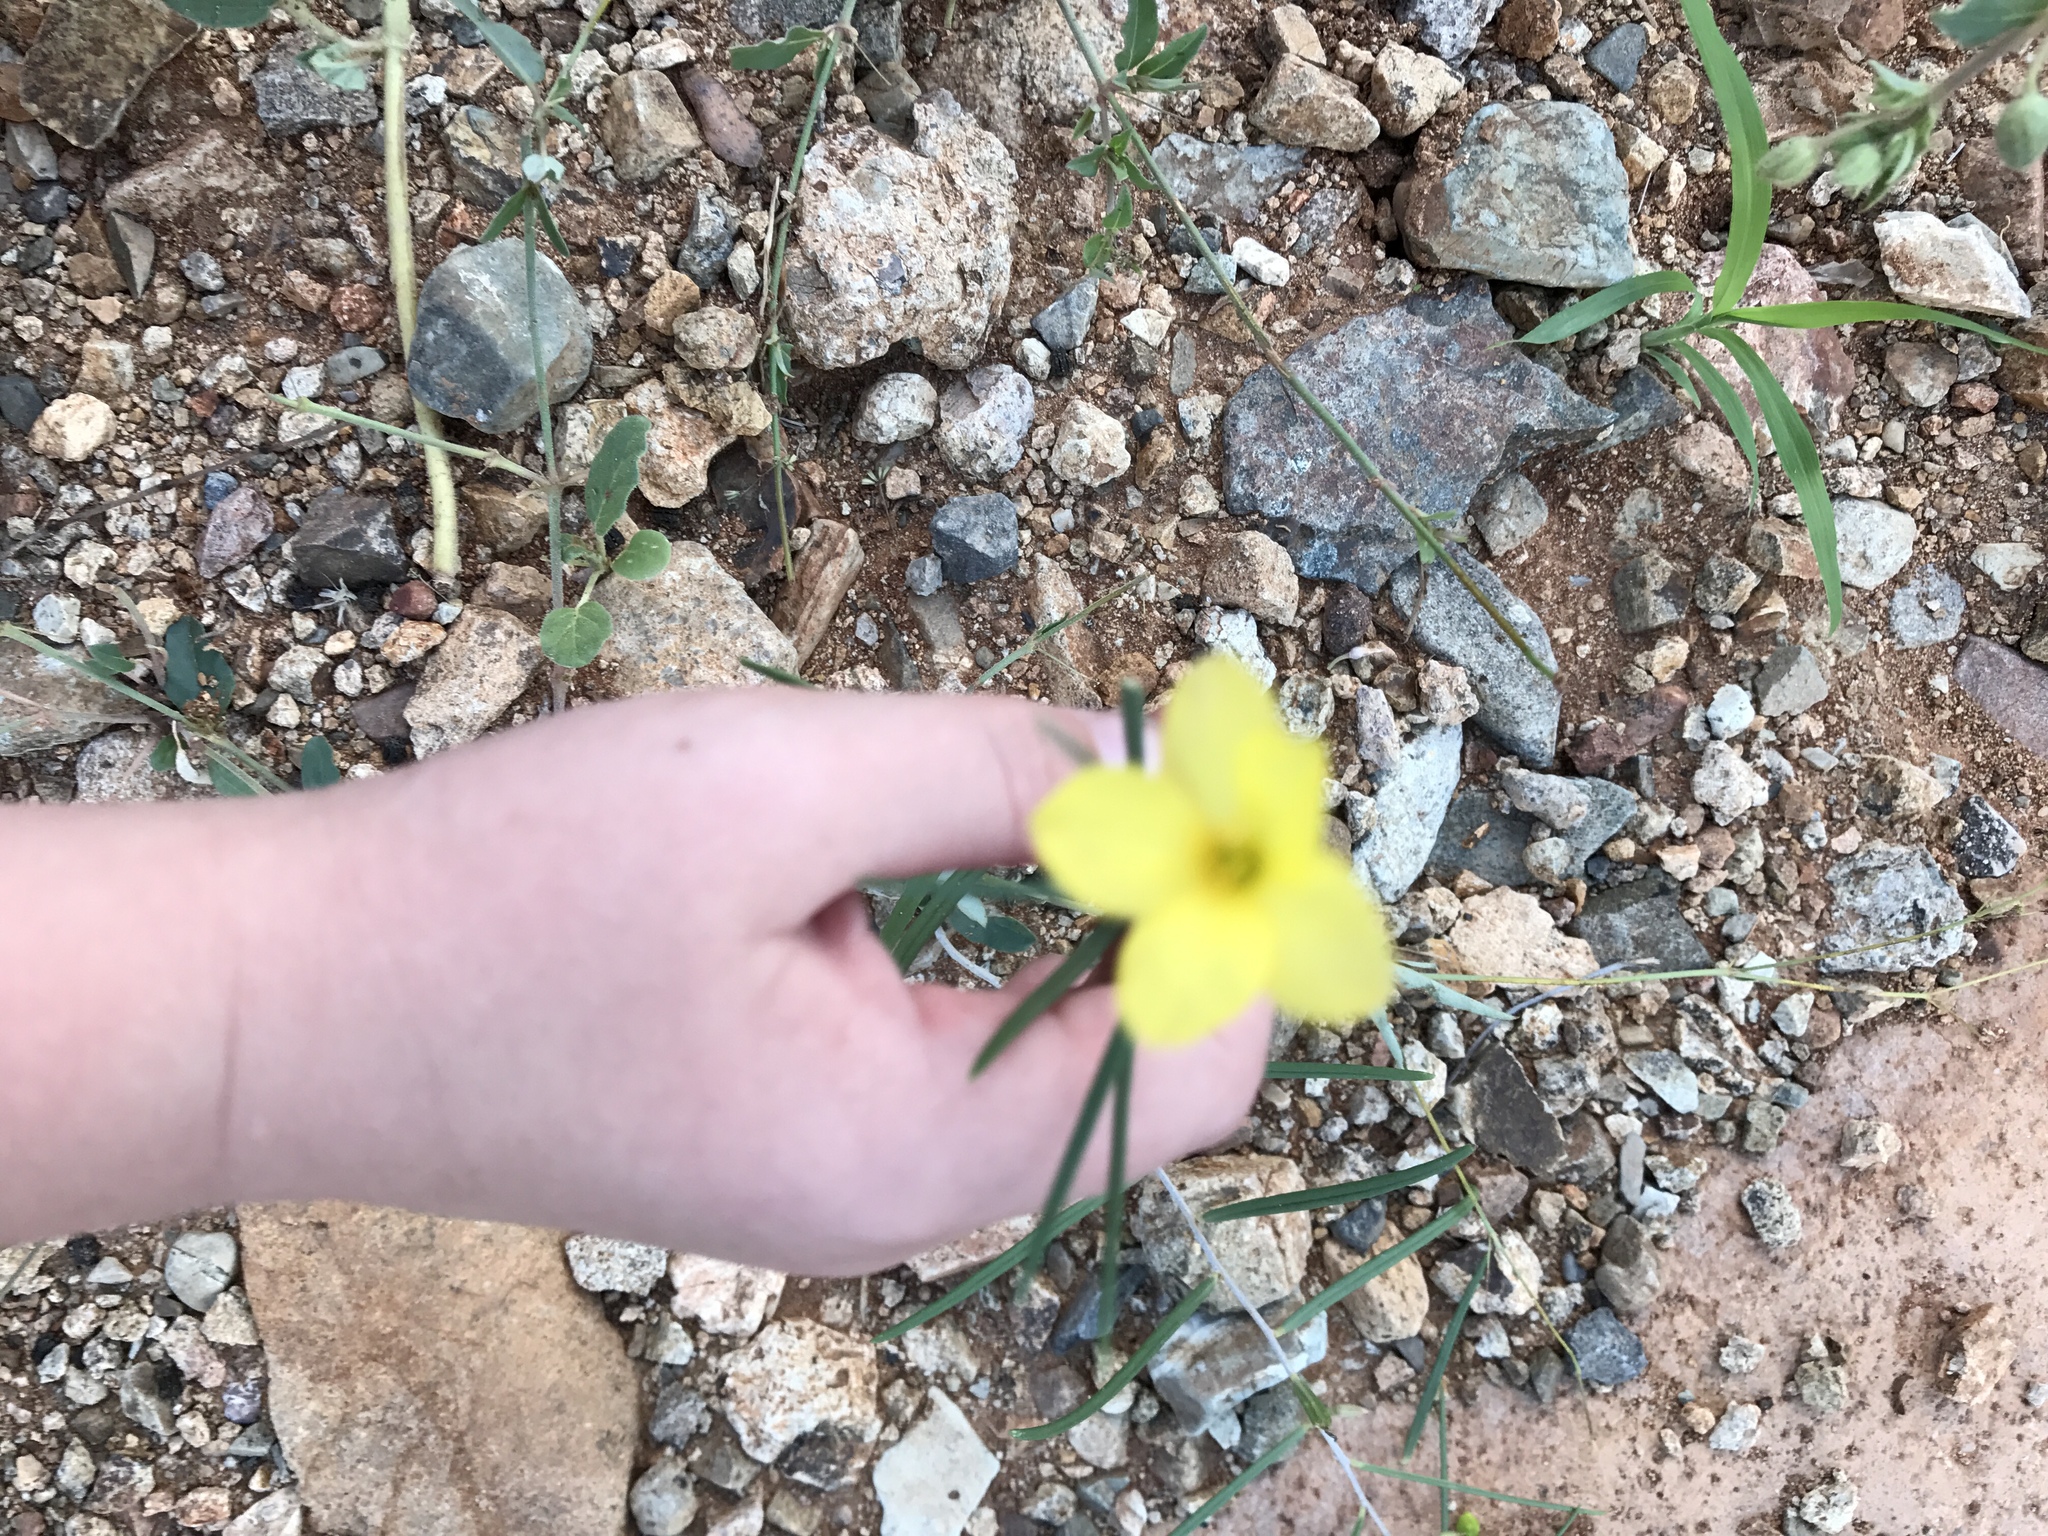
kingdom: Plantae
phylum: Tracheophyta
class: Magnoliopsida
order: Gentianales
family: Apocynaceae
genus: Haplophyton
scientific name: Haplophyton crooksii
